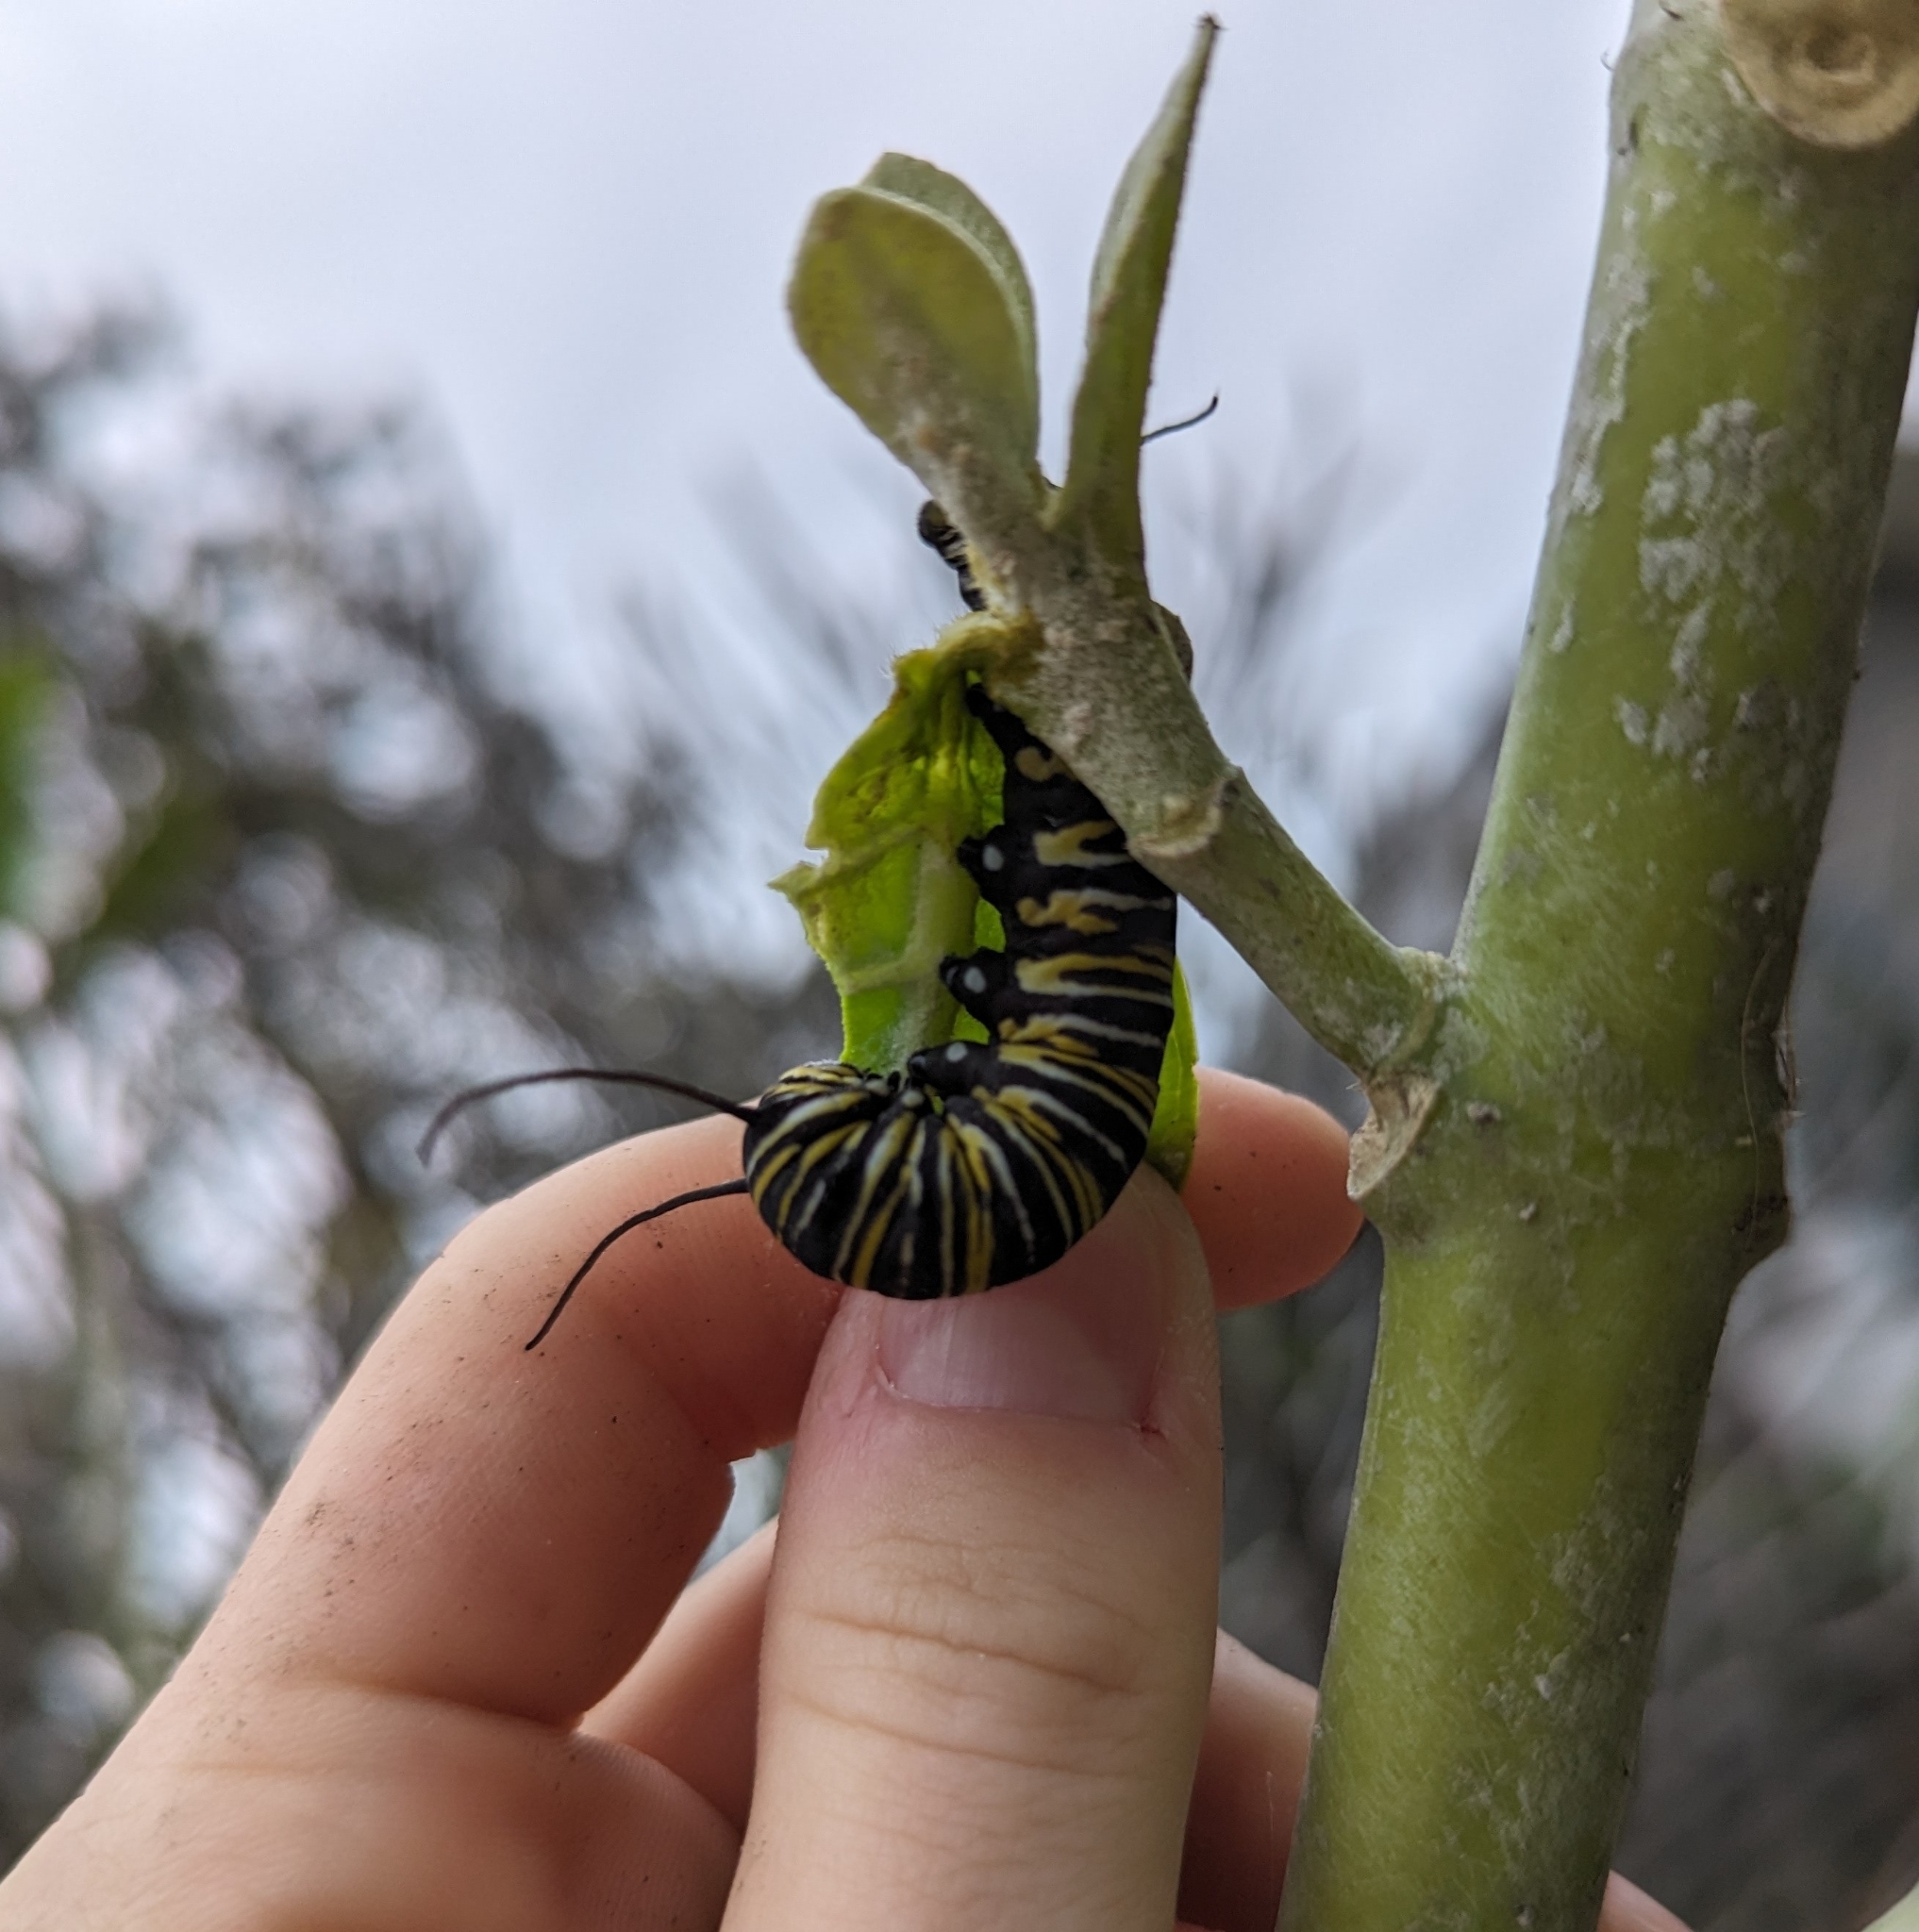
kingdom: Animalia
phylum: Arthropoda
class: Insecta
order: Lepidoptera
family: Nymphalidae
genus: Danaus
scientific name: Danaus plexippus
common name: Monarch
